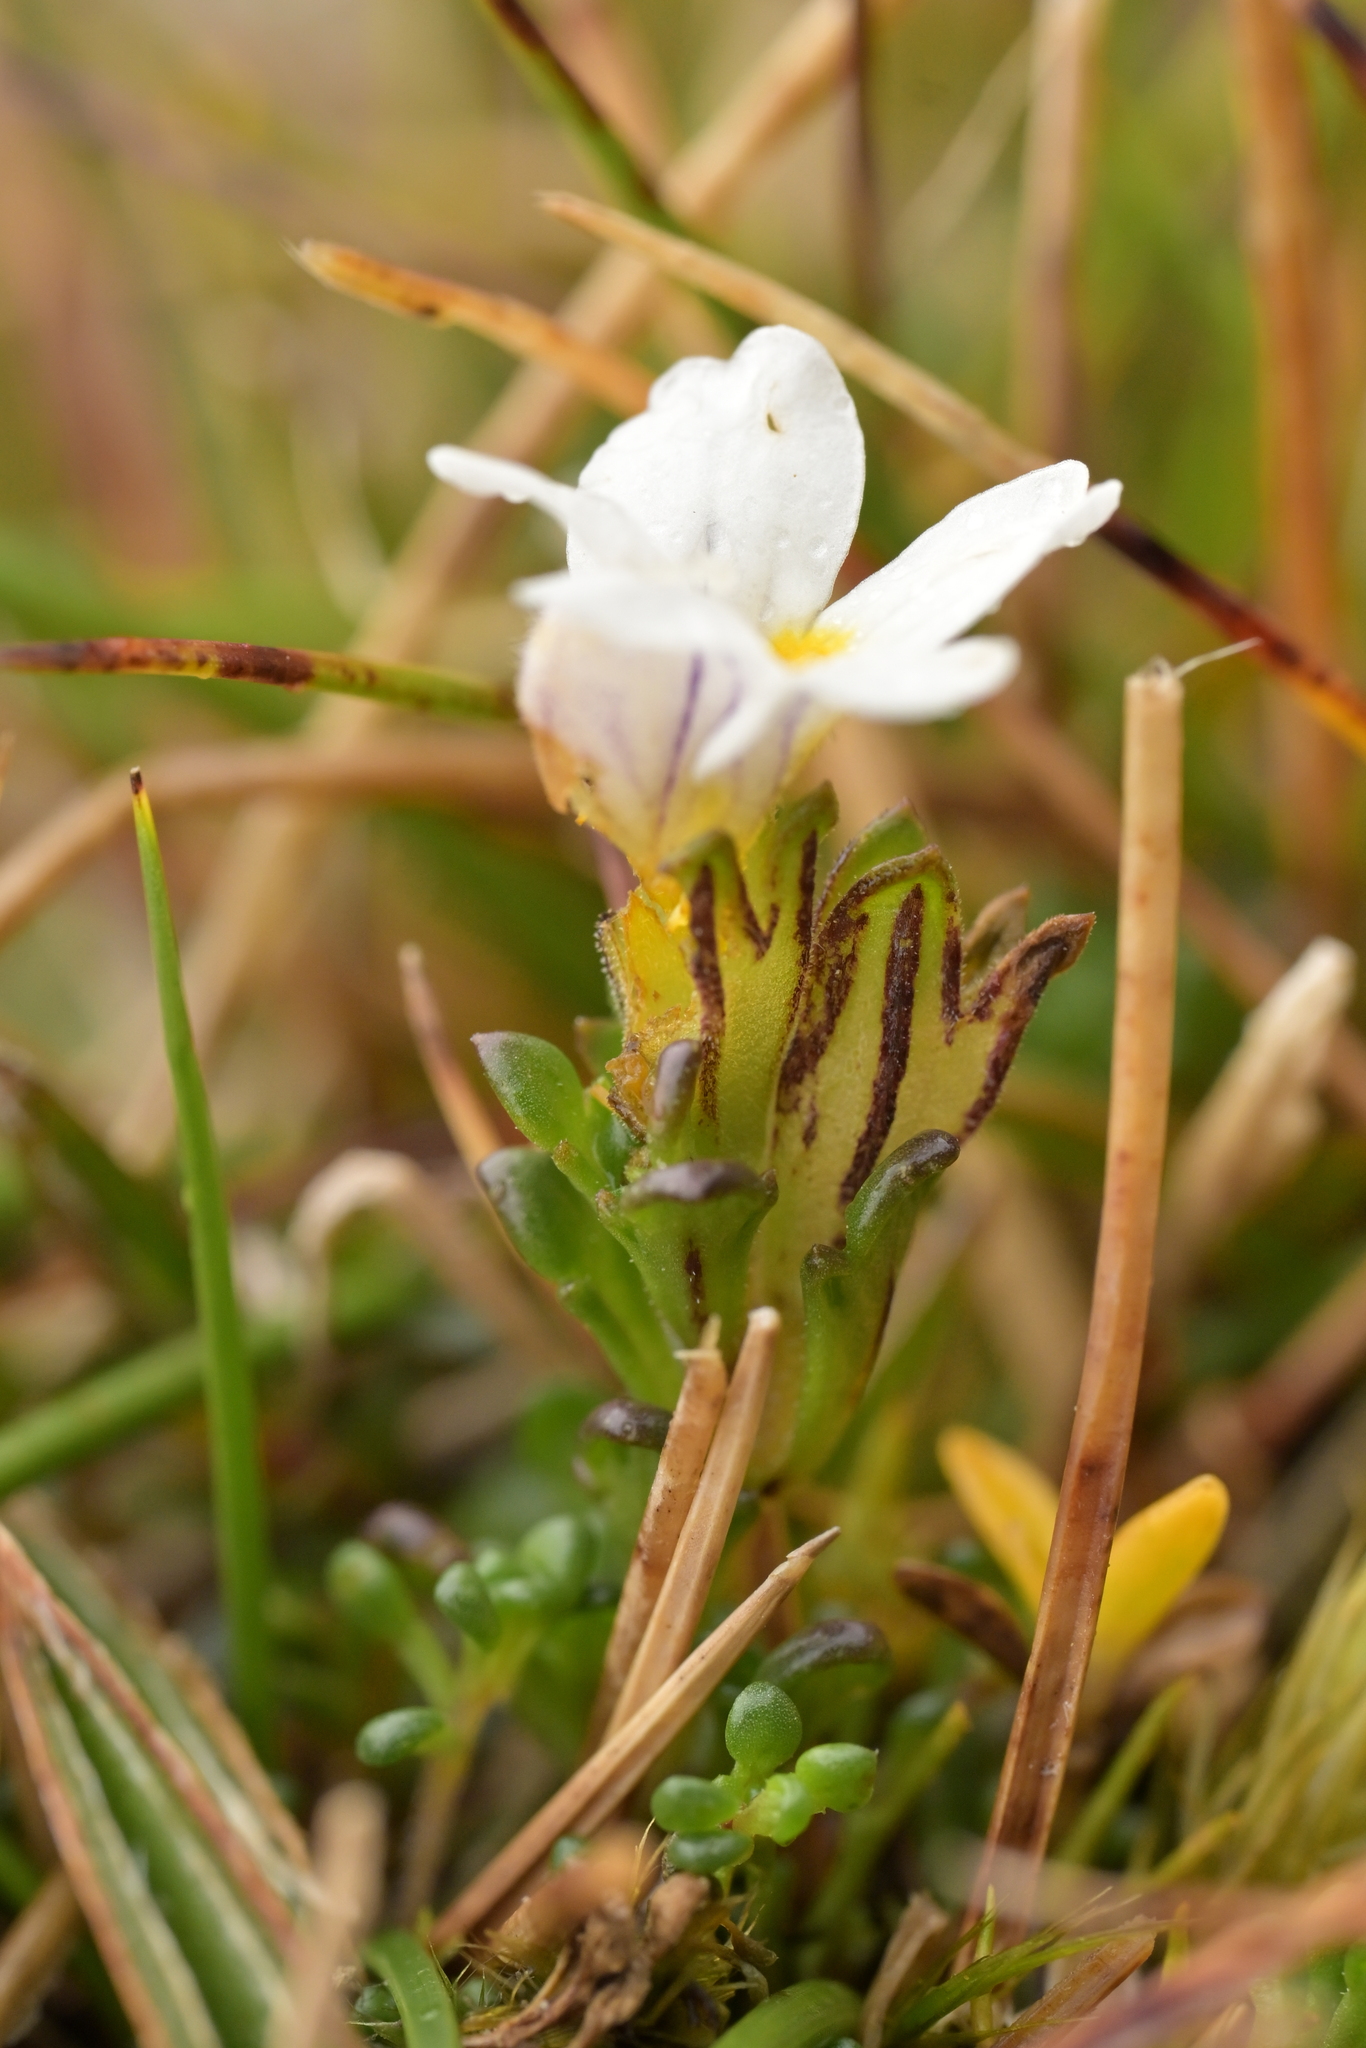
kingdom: Plantae
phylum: Tracheophyta
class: Magnoliopsida
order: Lamiales
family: Orobanchaceae
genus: Euphrasia
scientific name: Euphrasia revoluta
